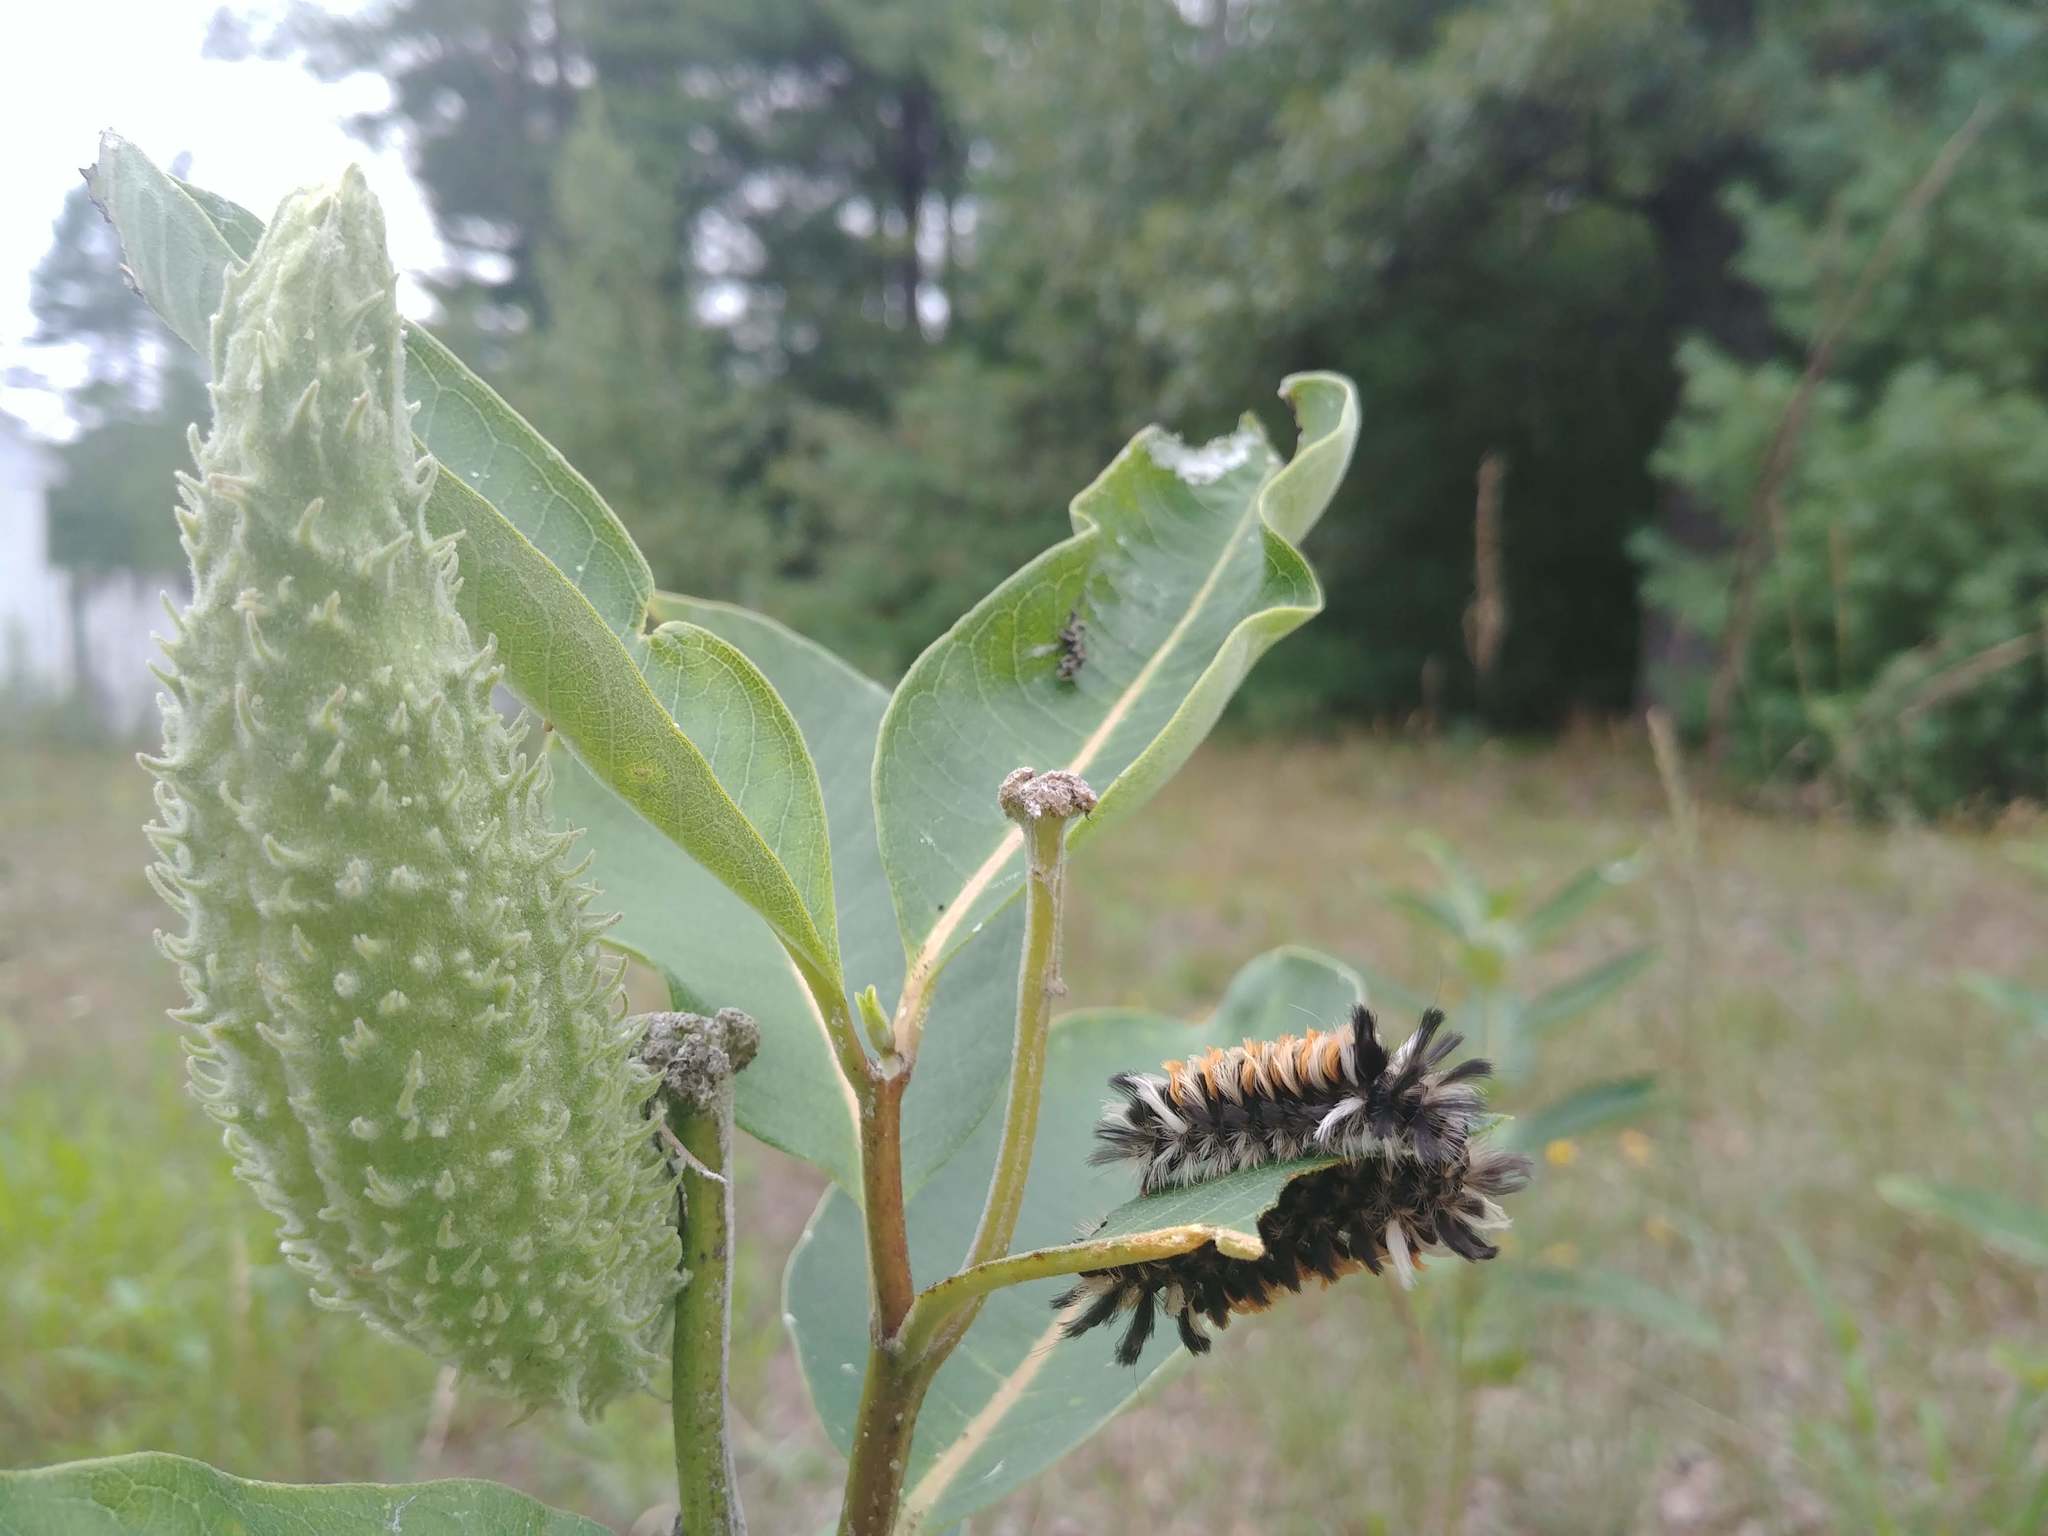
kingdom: Animalia
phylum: Arthropoda
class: Insecta
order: Lepidoptera
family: Erebidae
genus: Euchaetes
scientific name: Euchaetes egle
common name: Milkweed tussock moth
